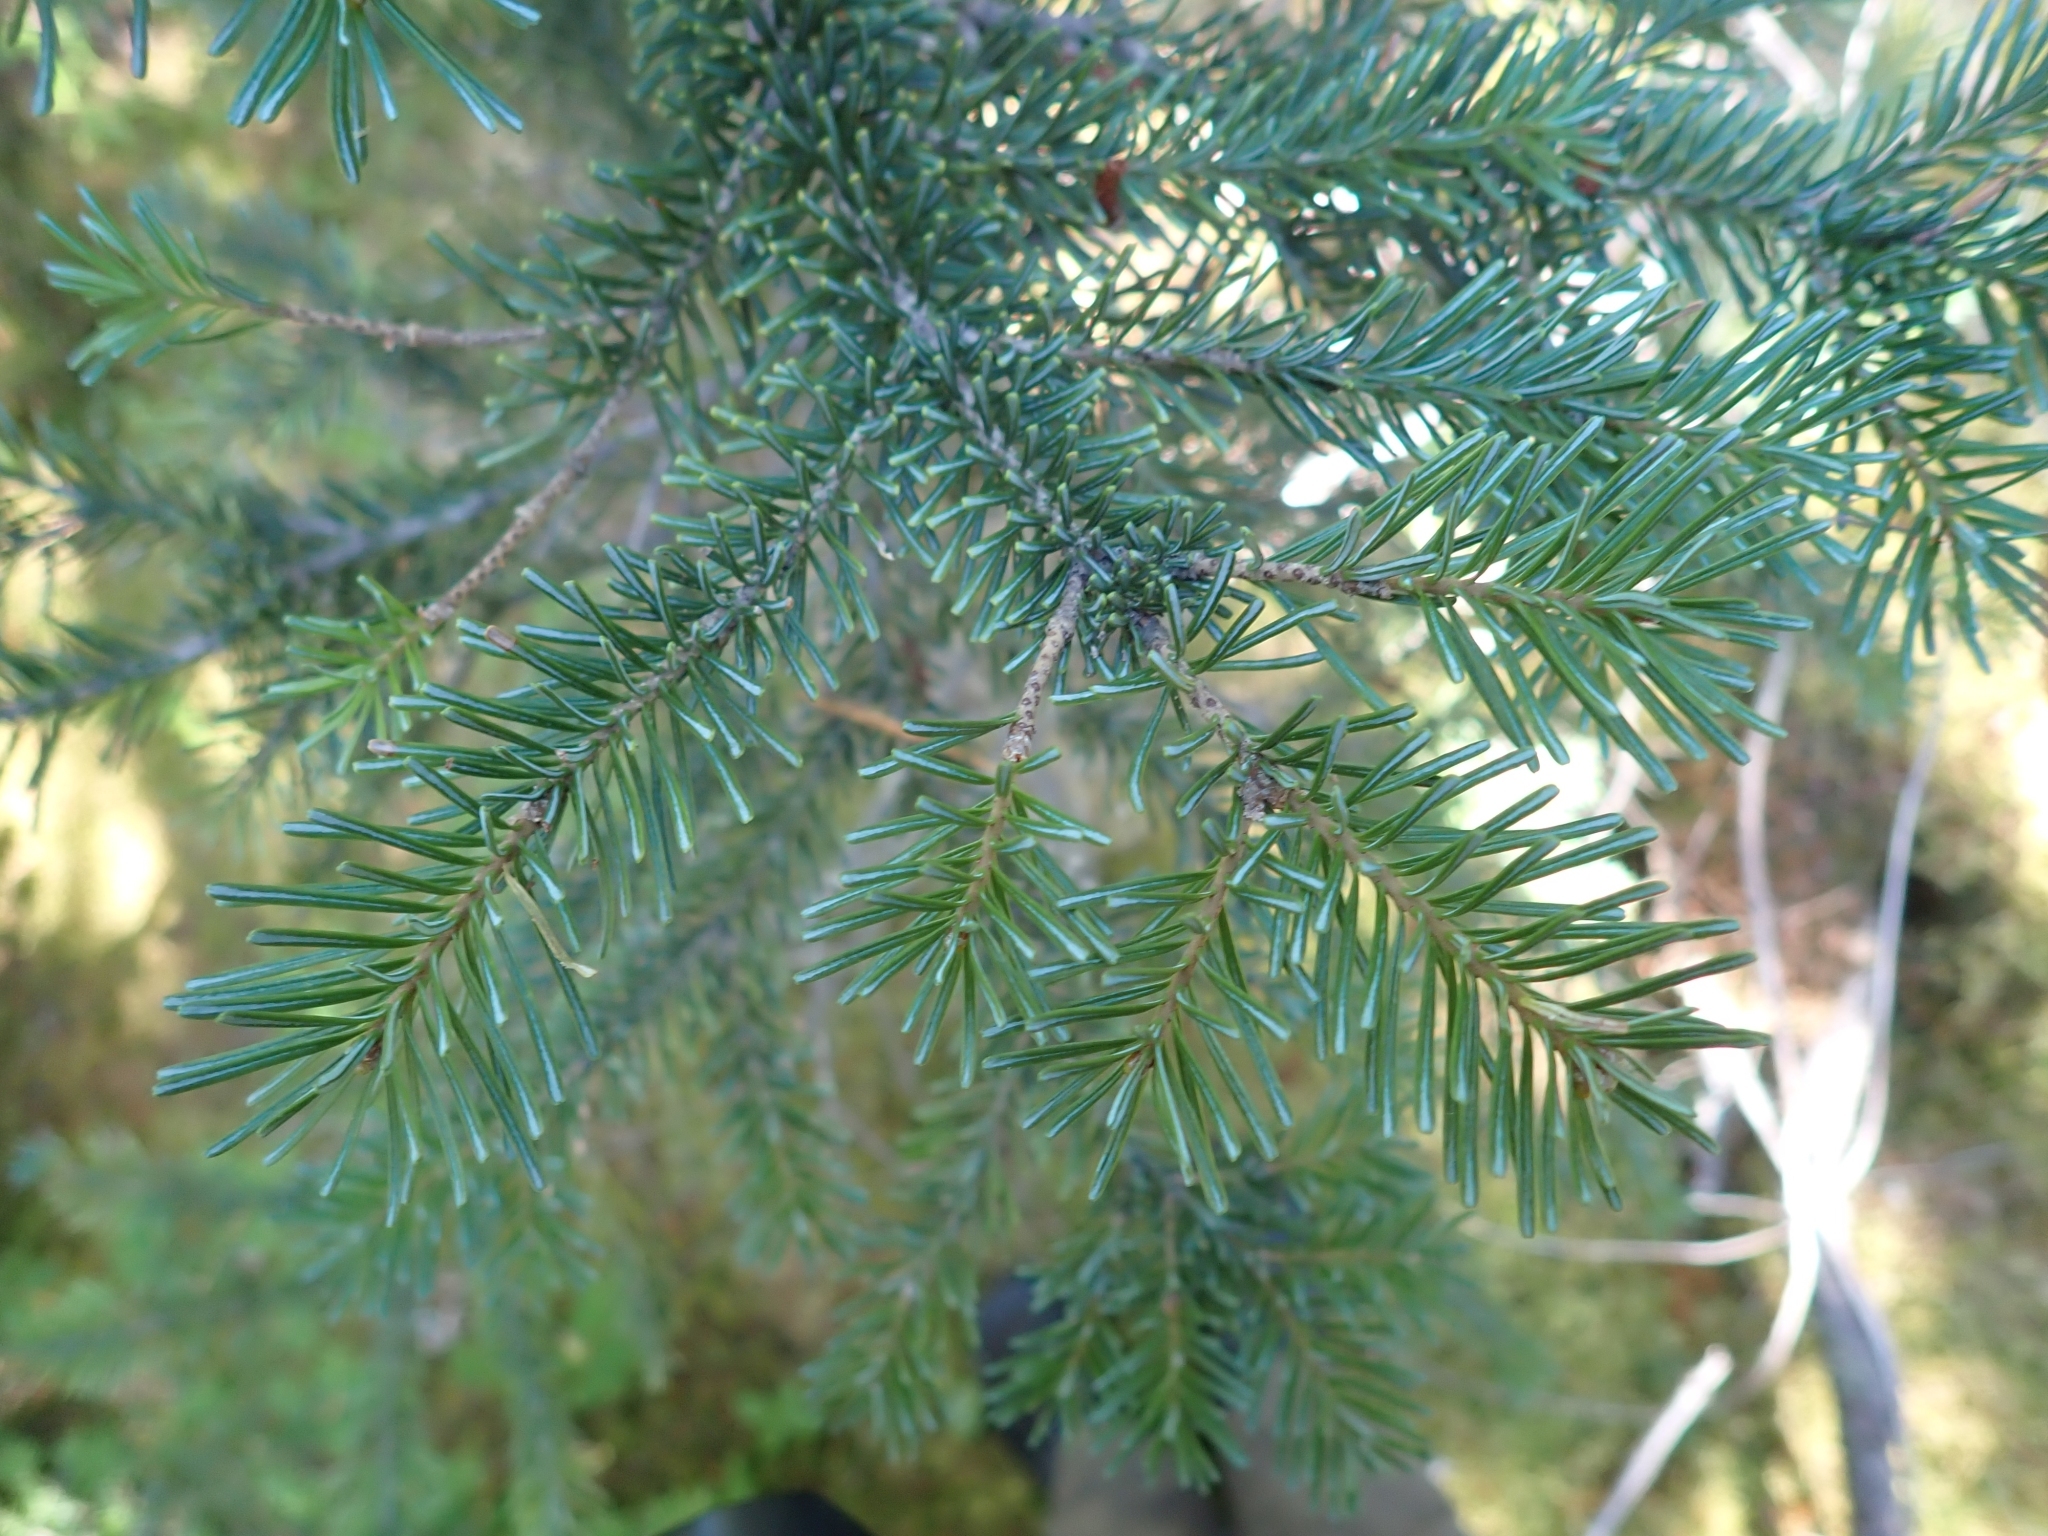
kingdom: Plantae
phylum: Tracheophyta
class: Pinopsida
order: Pinales
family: Pinaceae
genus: Abies
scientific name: Abies lasiocarpa
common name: Subalpine fir
